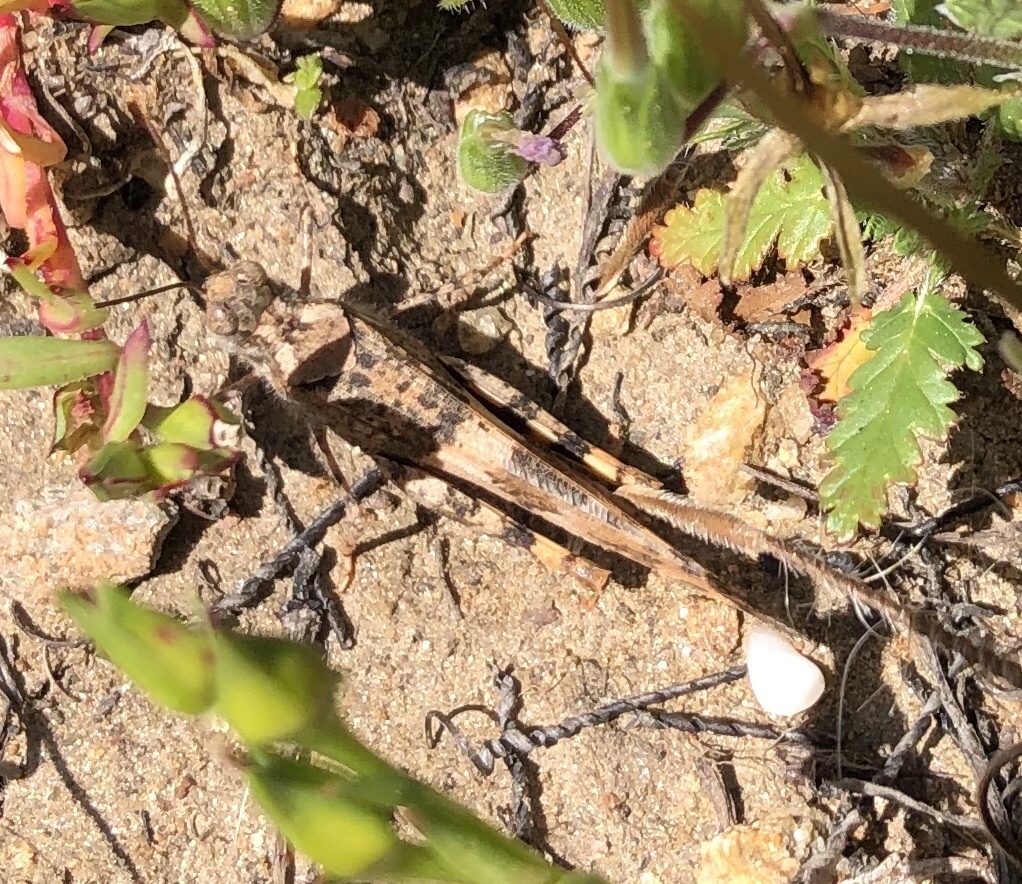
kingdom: Animalia
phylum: Arthropoda
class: Insecta
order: Orthoptera
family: Acrididae
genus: Trimerotropis
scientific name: Trimerotropis pallidipennis
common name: Pallid-winged grasshopper
